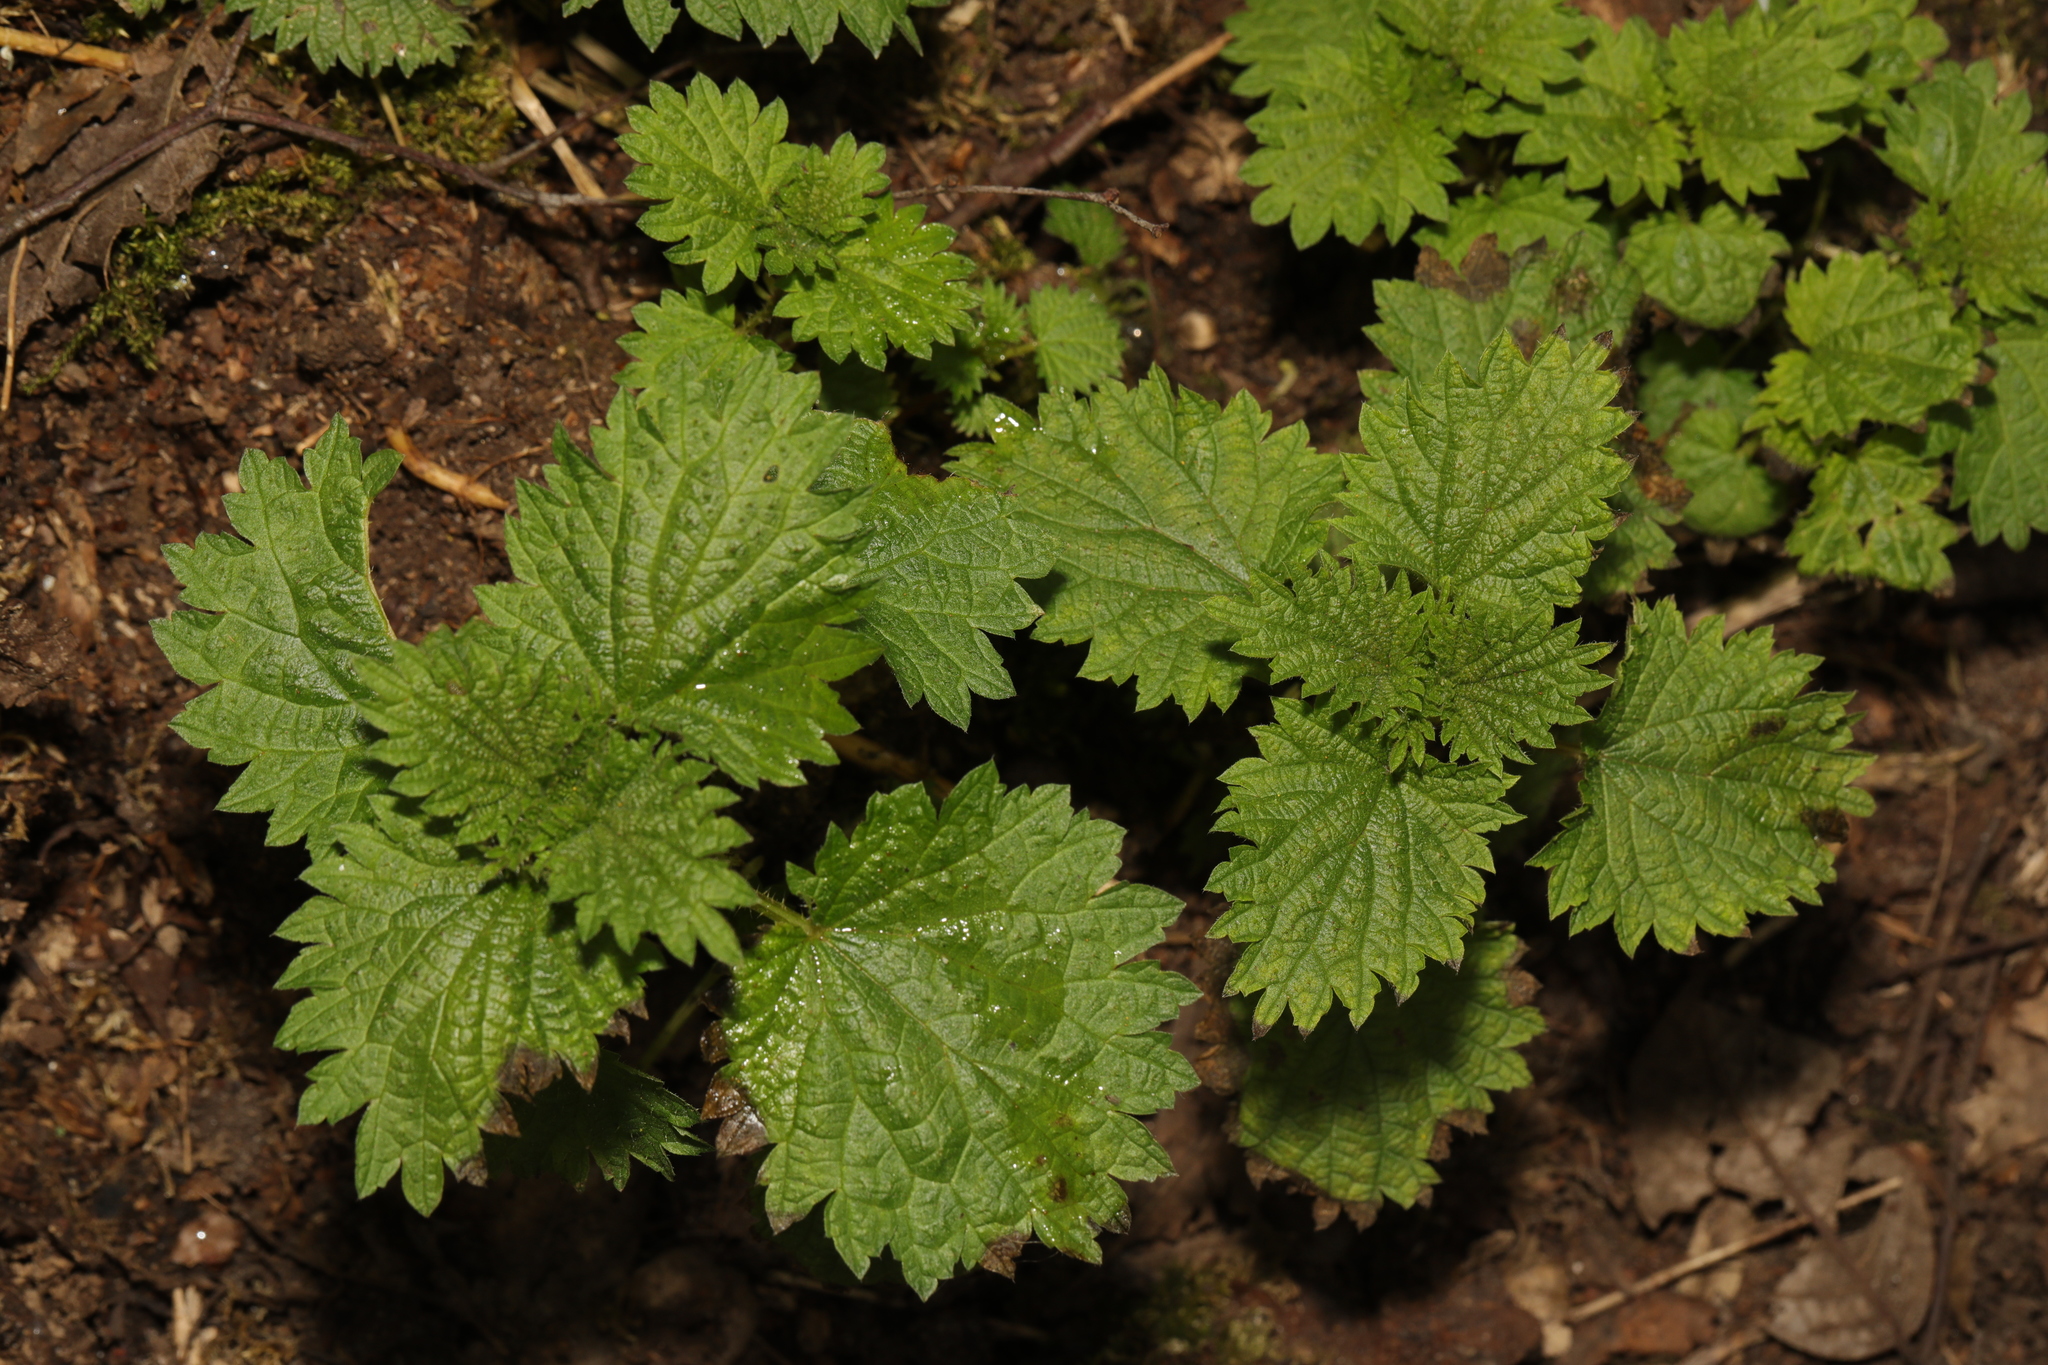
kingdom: Plantae
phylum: Tracheophyta
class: Magnoliopsida
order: Rosales
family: Urticaceae
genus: Urtica
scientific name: Urtica dioica
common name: Common nettle
